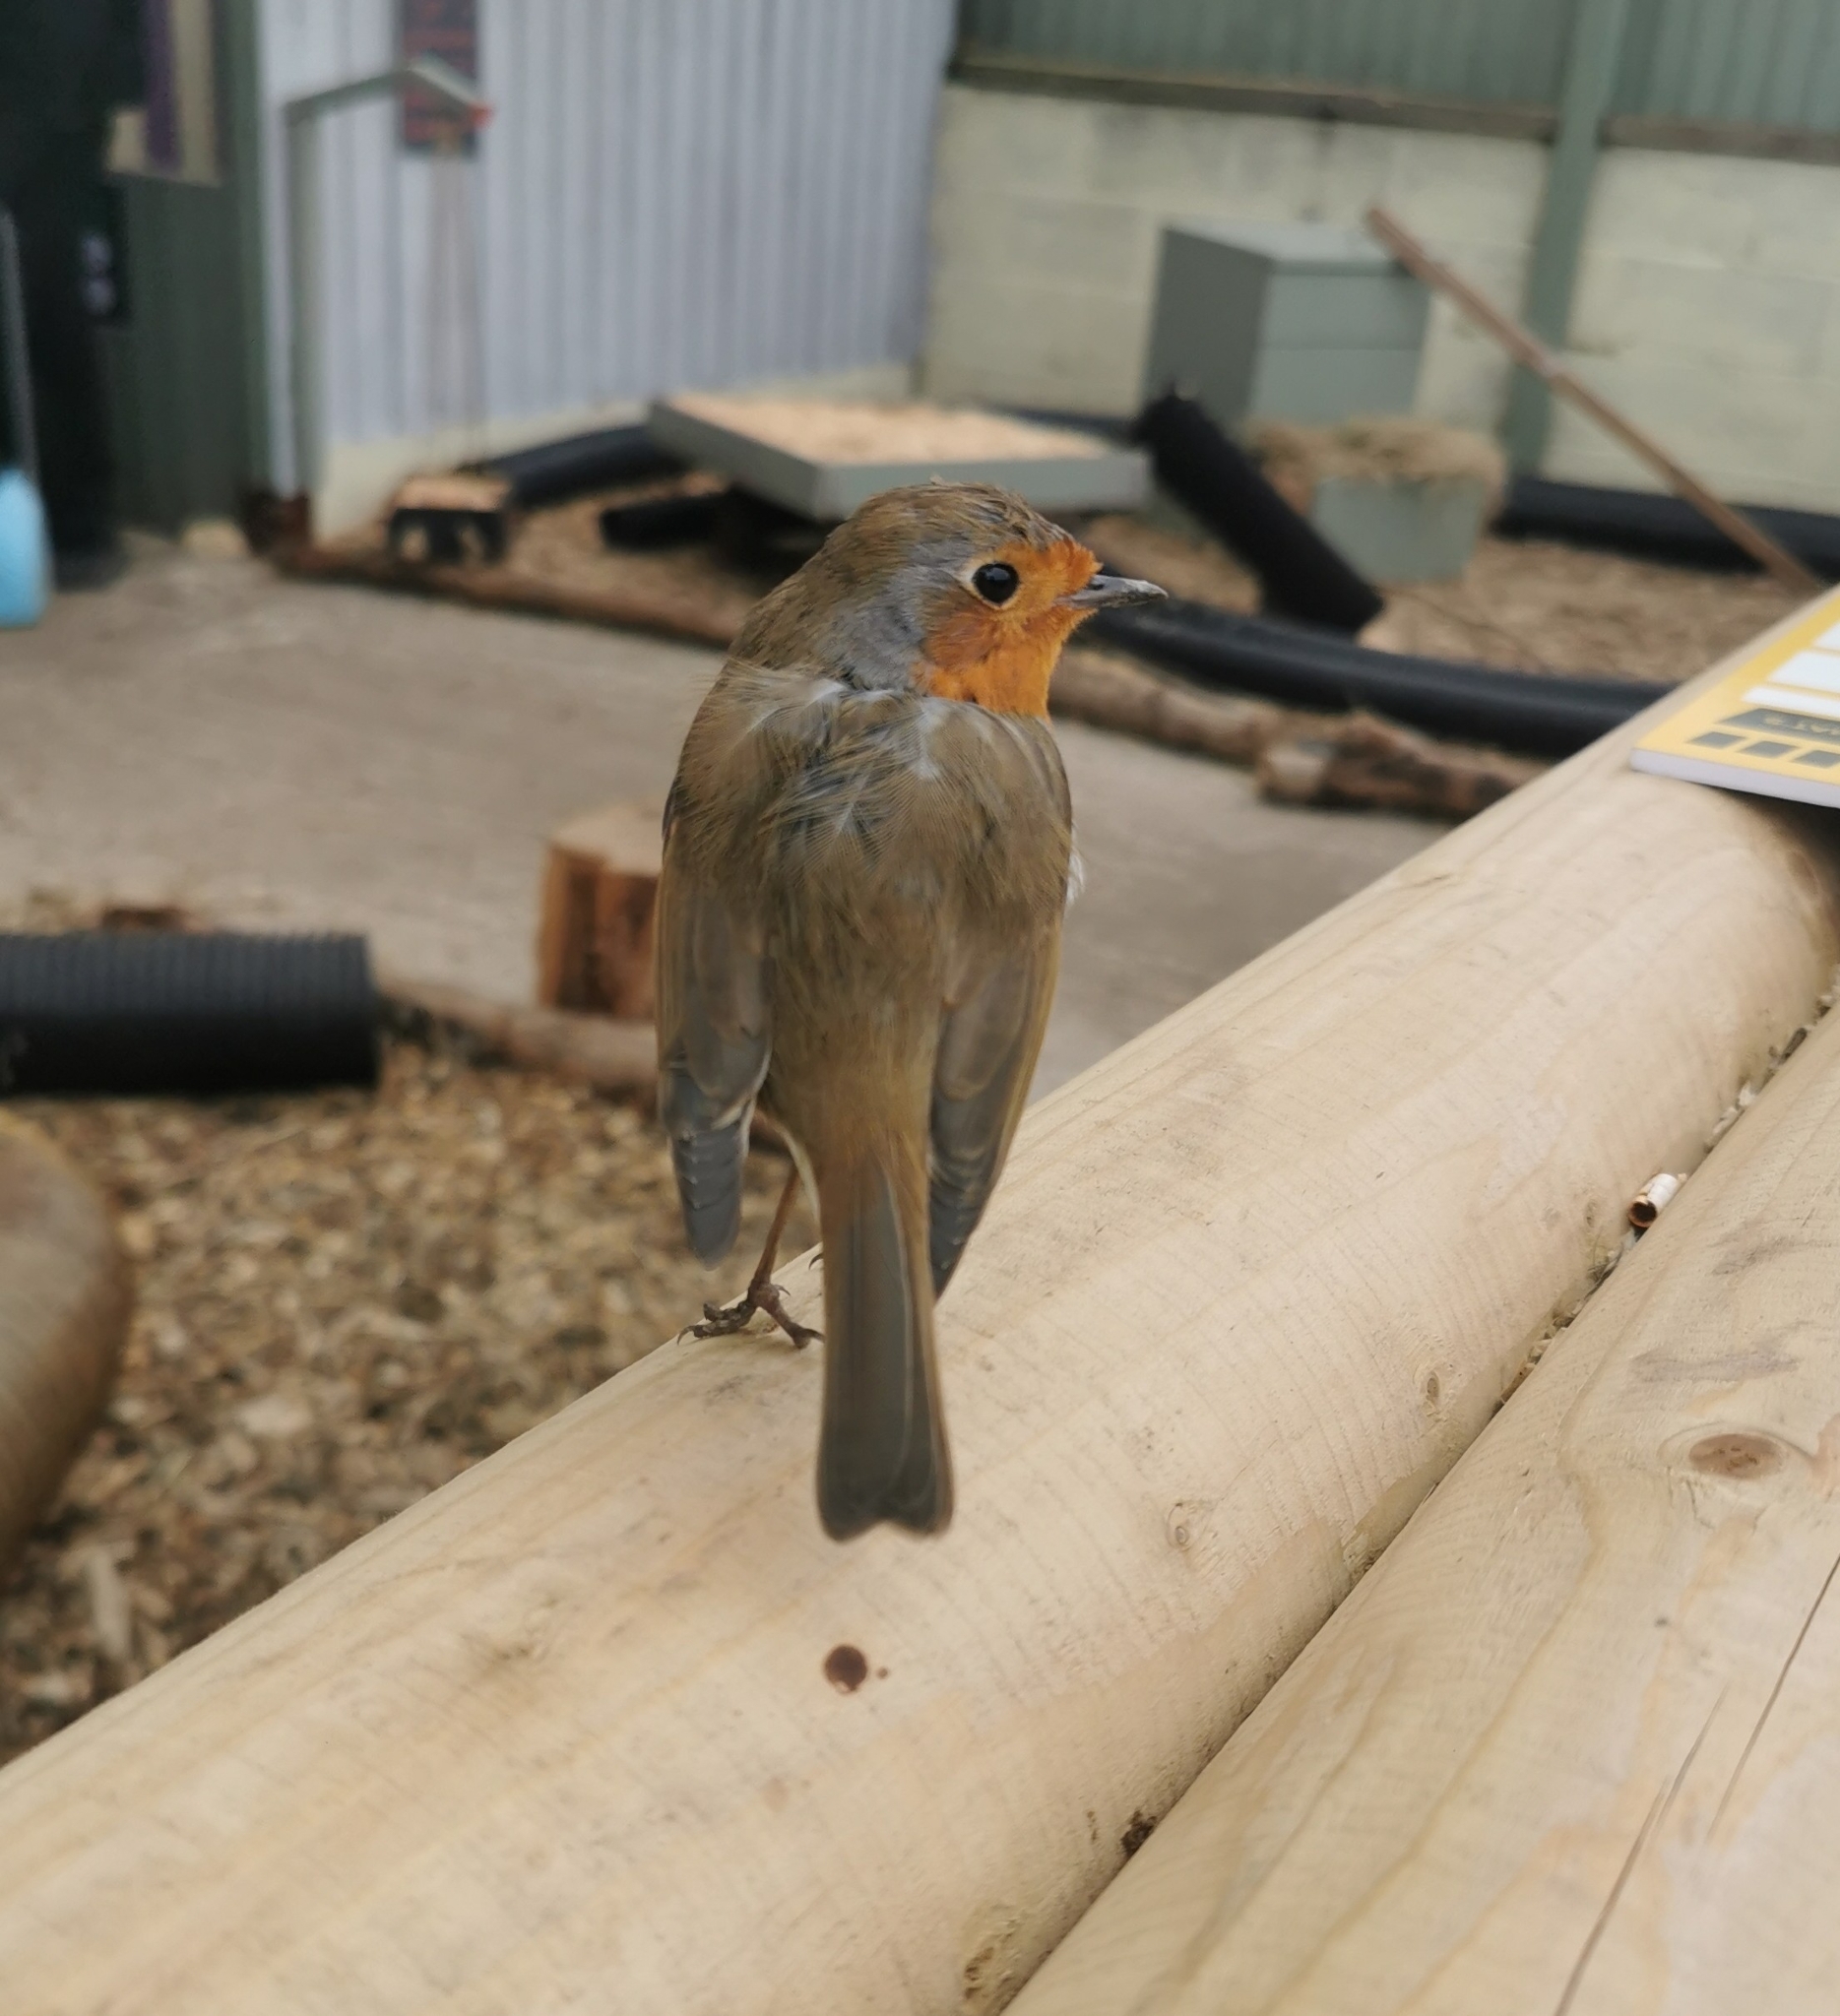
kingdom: Animalia
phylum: Chordata
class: Aves
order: Passeriformes
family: Muscicapidae
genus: Erithacus
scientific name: Erithacus rubecula
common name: European robin
